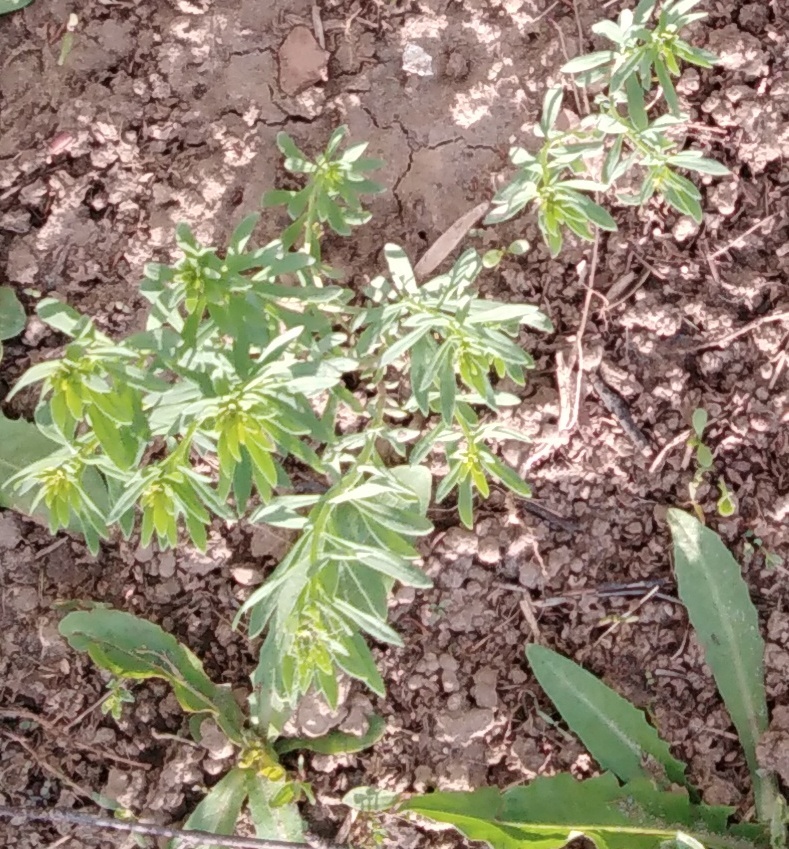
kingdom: Plantae
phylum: Tracheophyta
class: Magnoliopsida
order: Lamiales
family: Plantaginaceae
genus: Linaria
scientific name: Linaria vulgaris
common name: Butter and eggs
